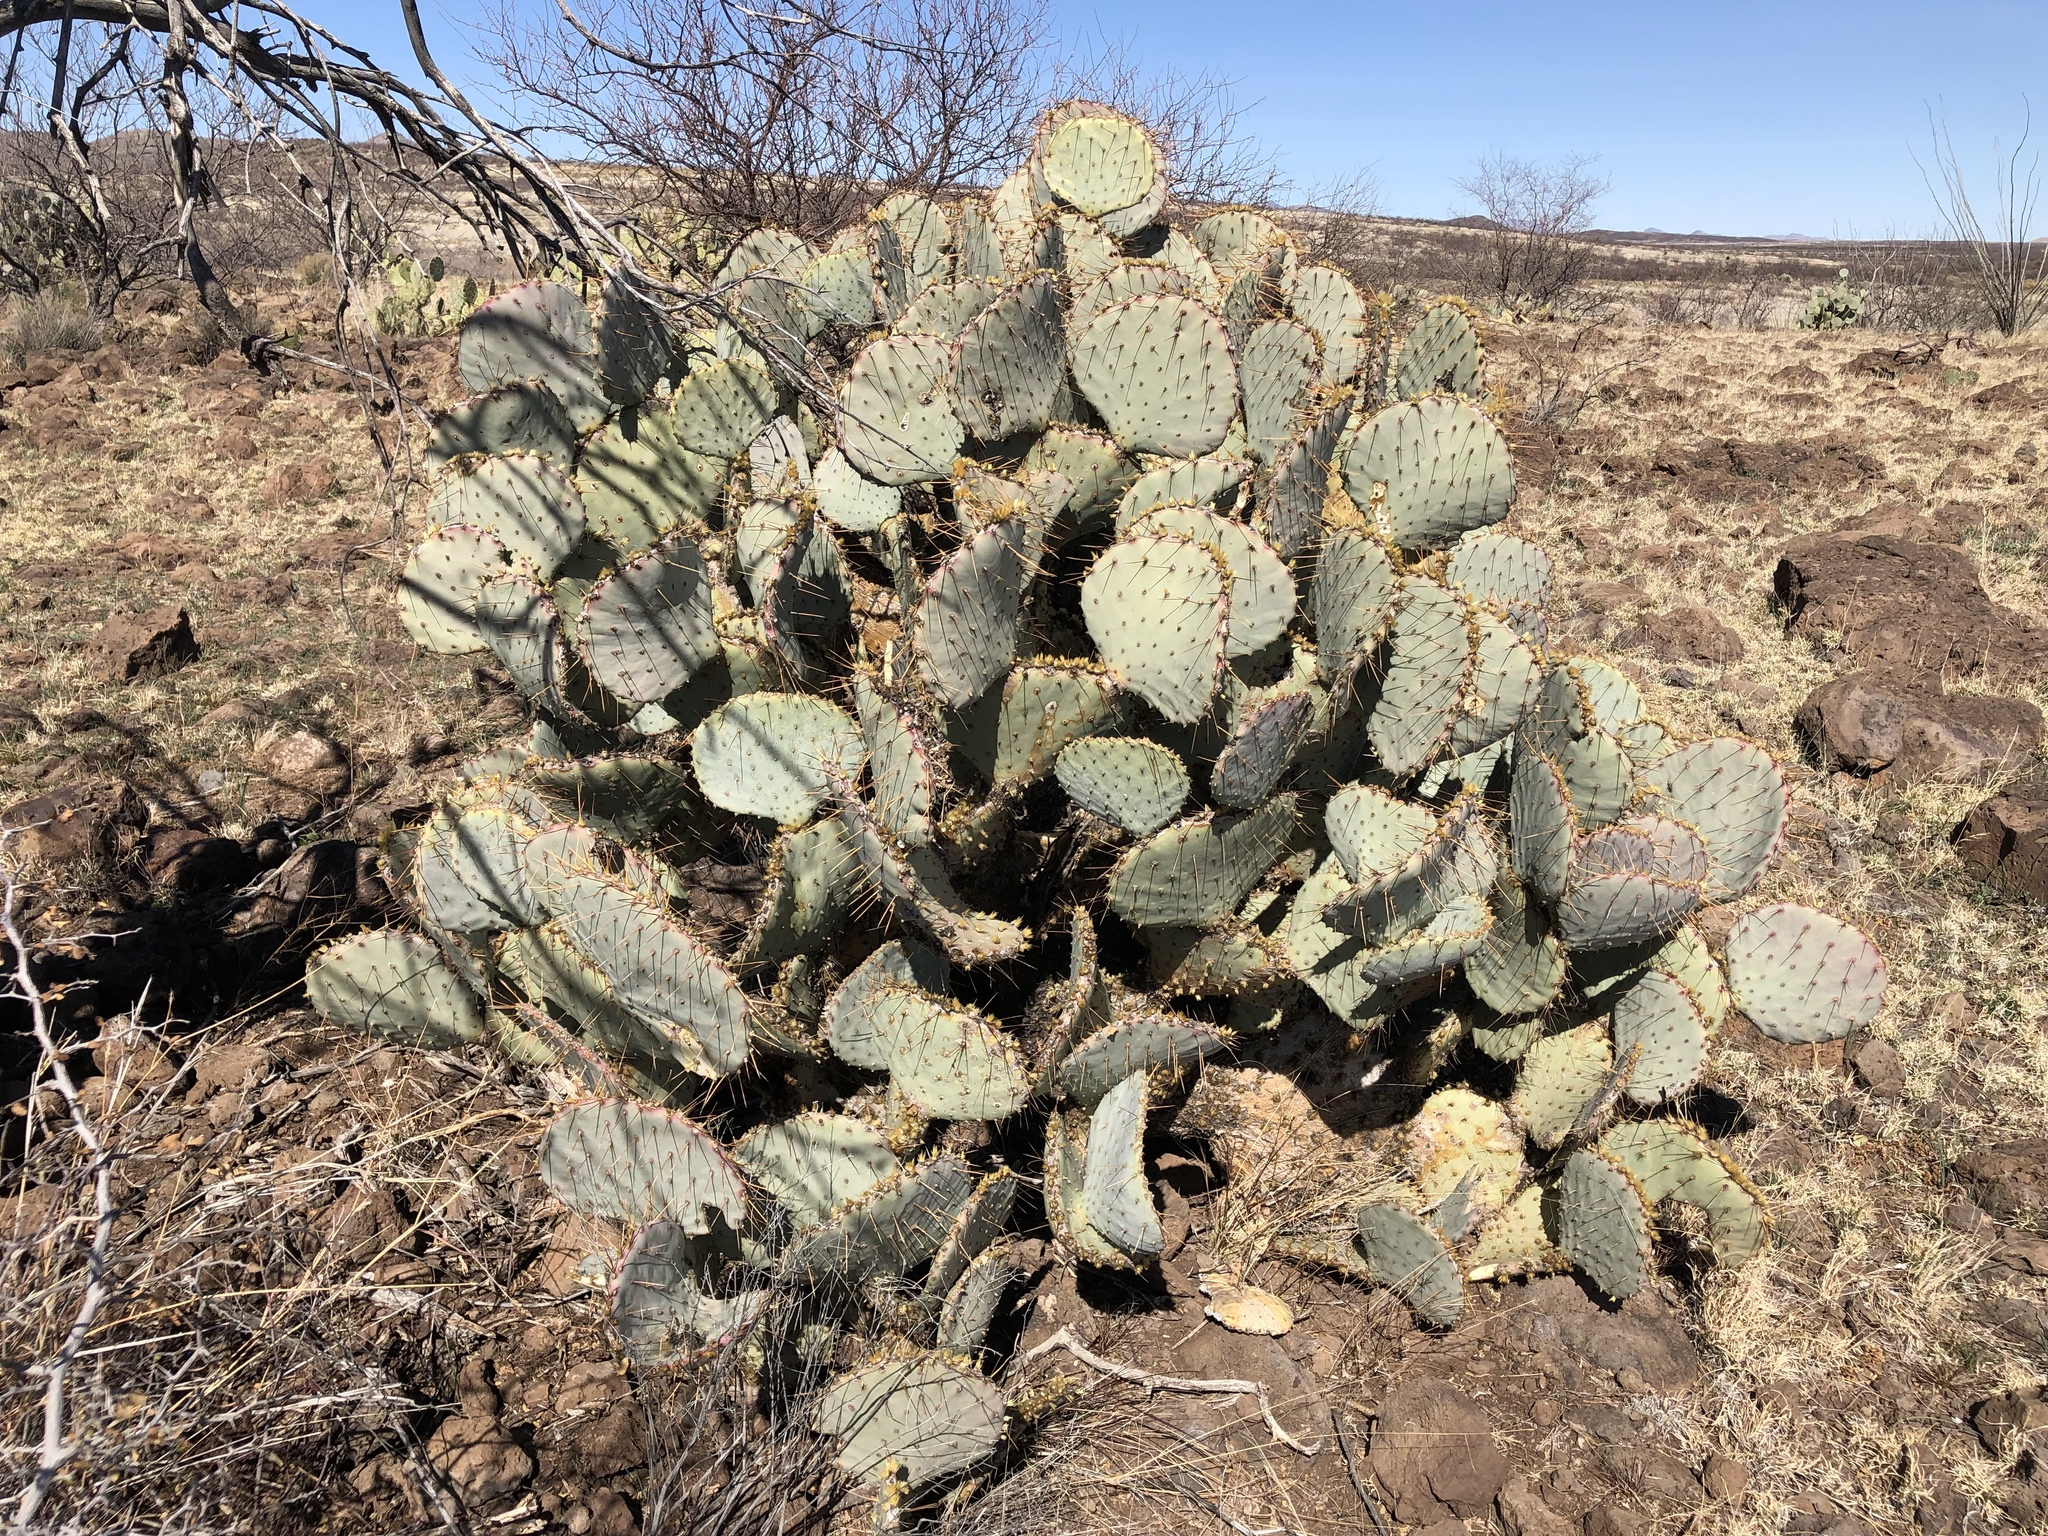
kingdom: Plantae
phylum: Tracheophyta
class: Magnoliopsida
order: Caryophyllales
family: Cactaceae
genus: Opuntia
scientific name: Opuntia gosseliniana
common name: Violet prickly-pear
